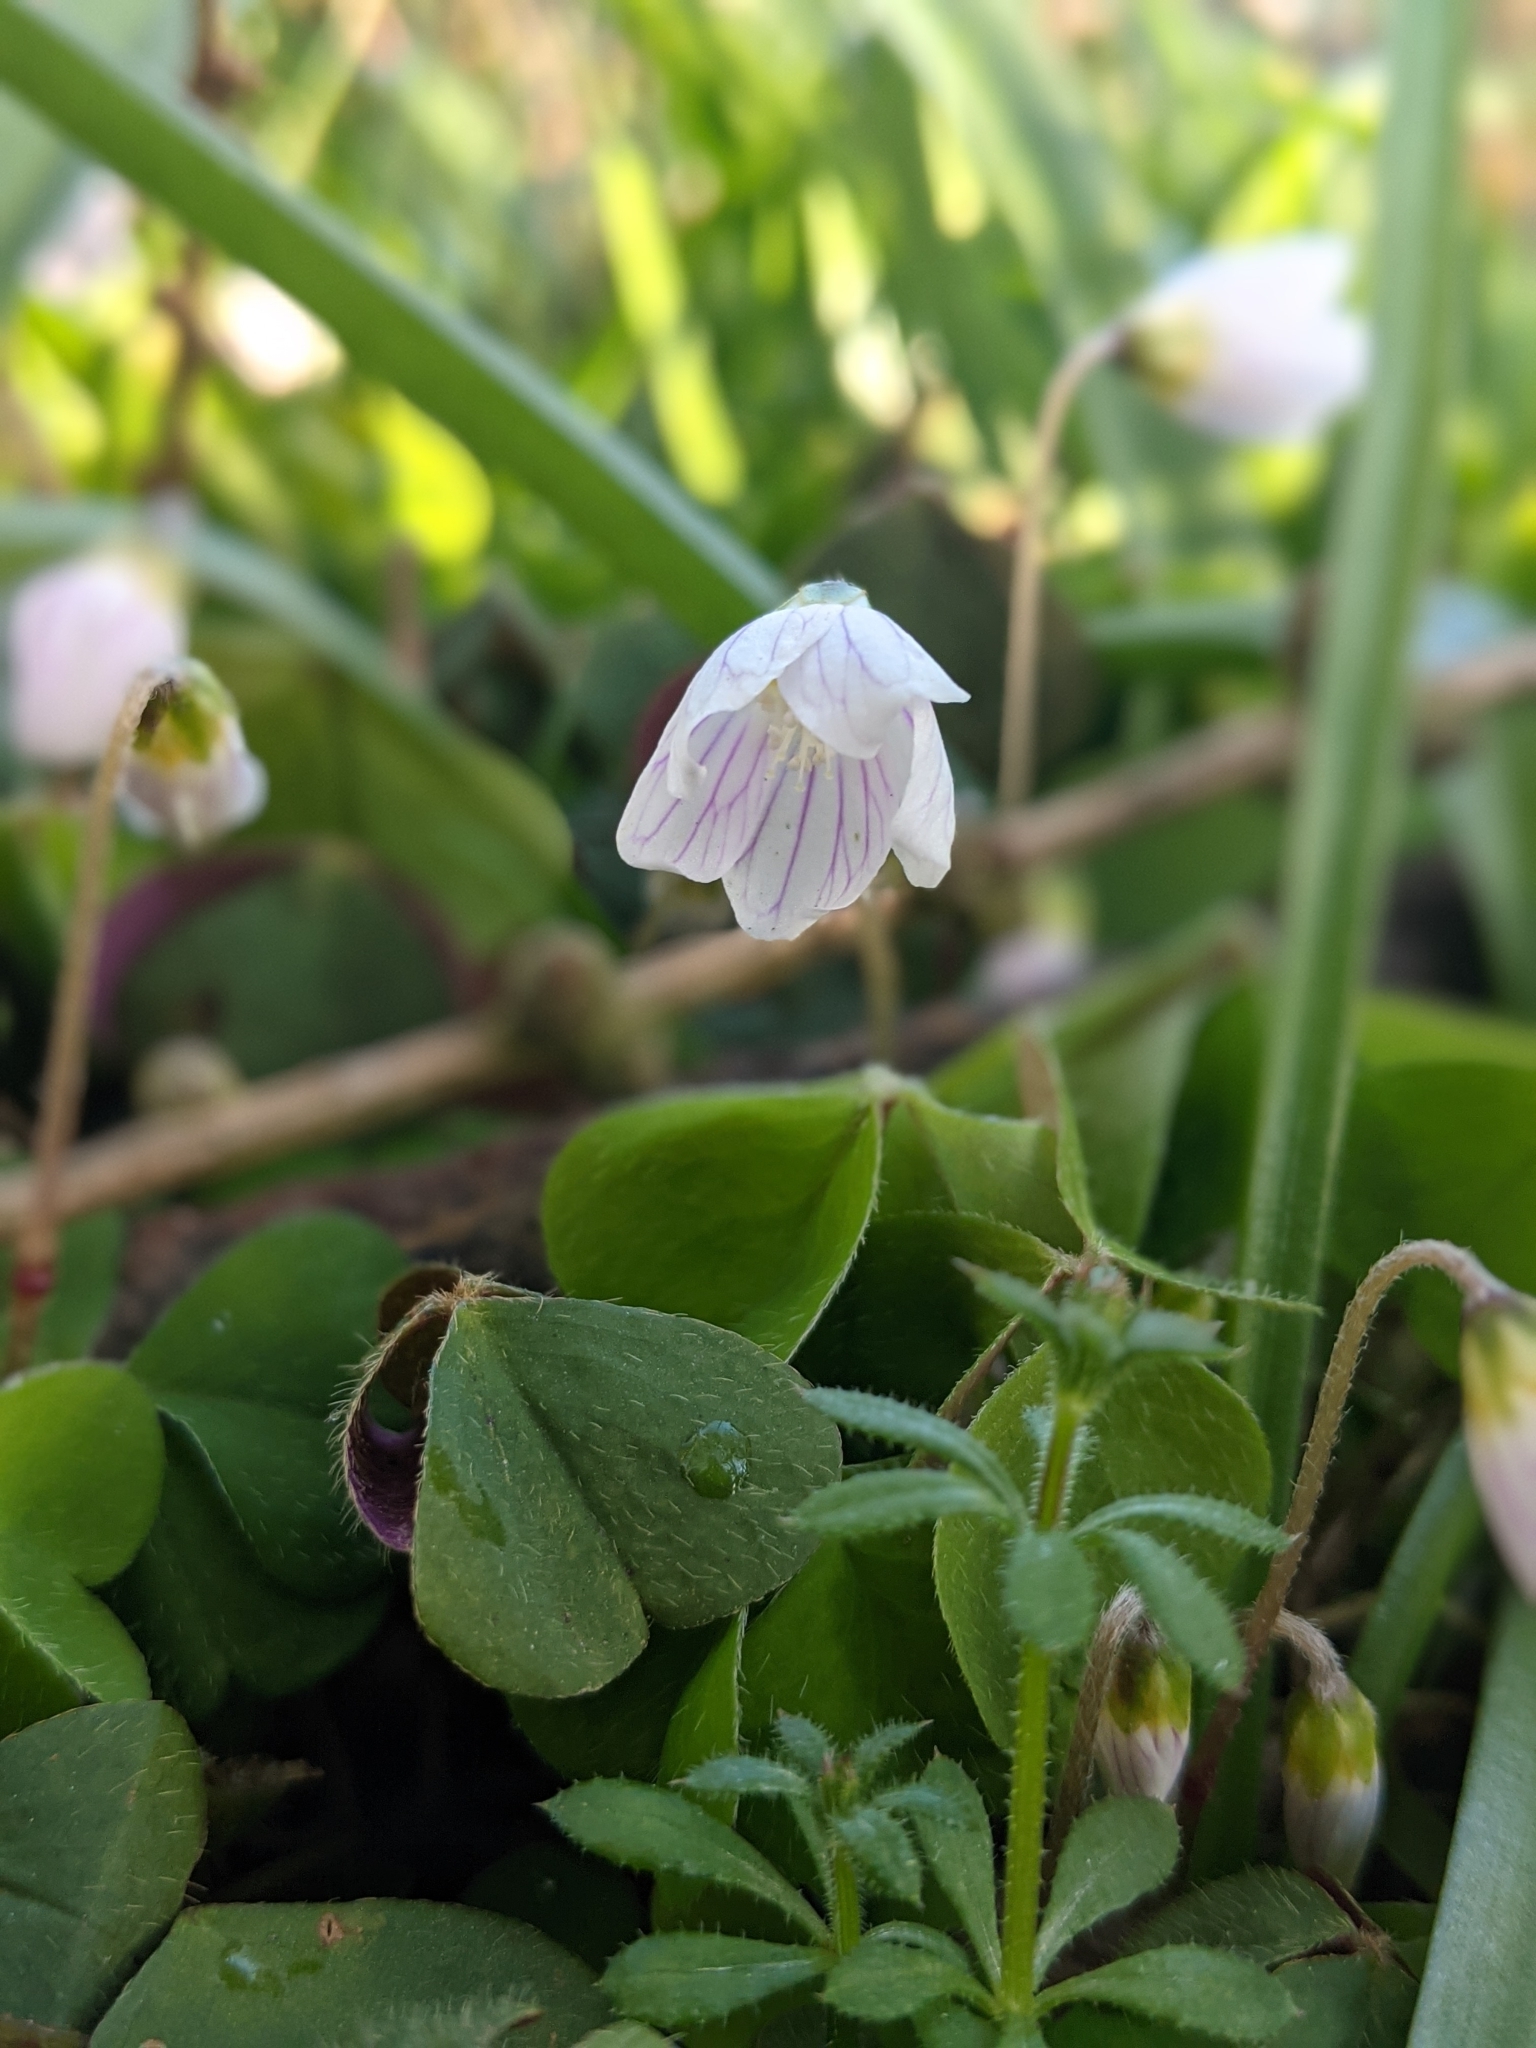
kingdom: Plantae
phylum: Tracheophyta
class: Magnoliopsida
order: Oxalidales
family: Oxalidaceae
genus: Oxalis
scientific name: Oxalis acetosella
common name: Wood-sorrel
